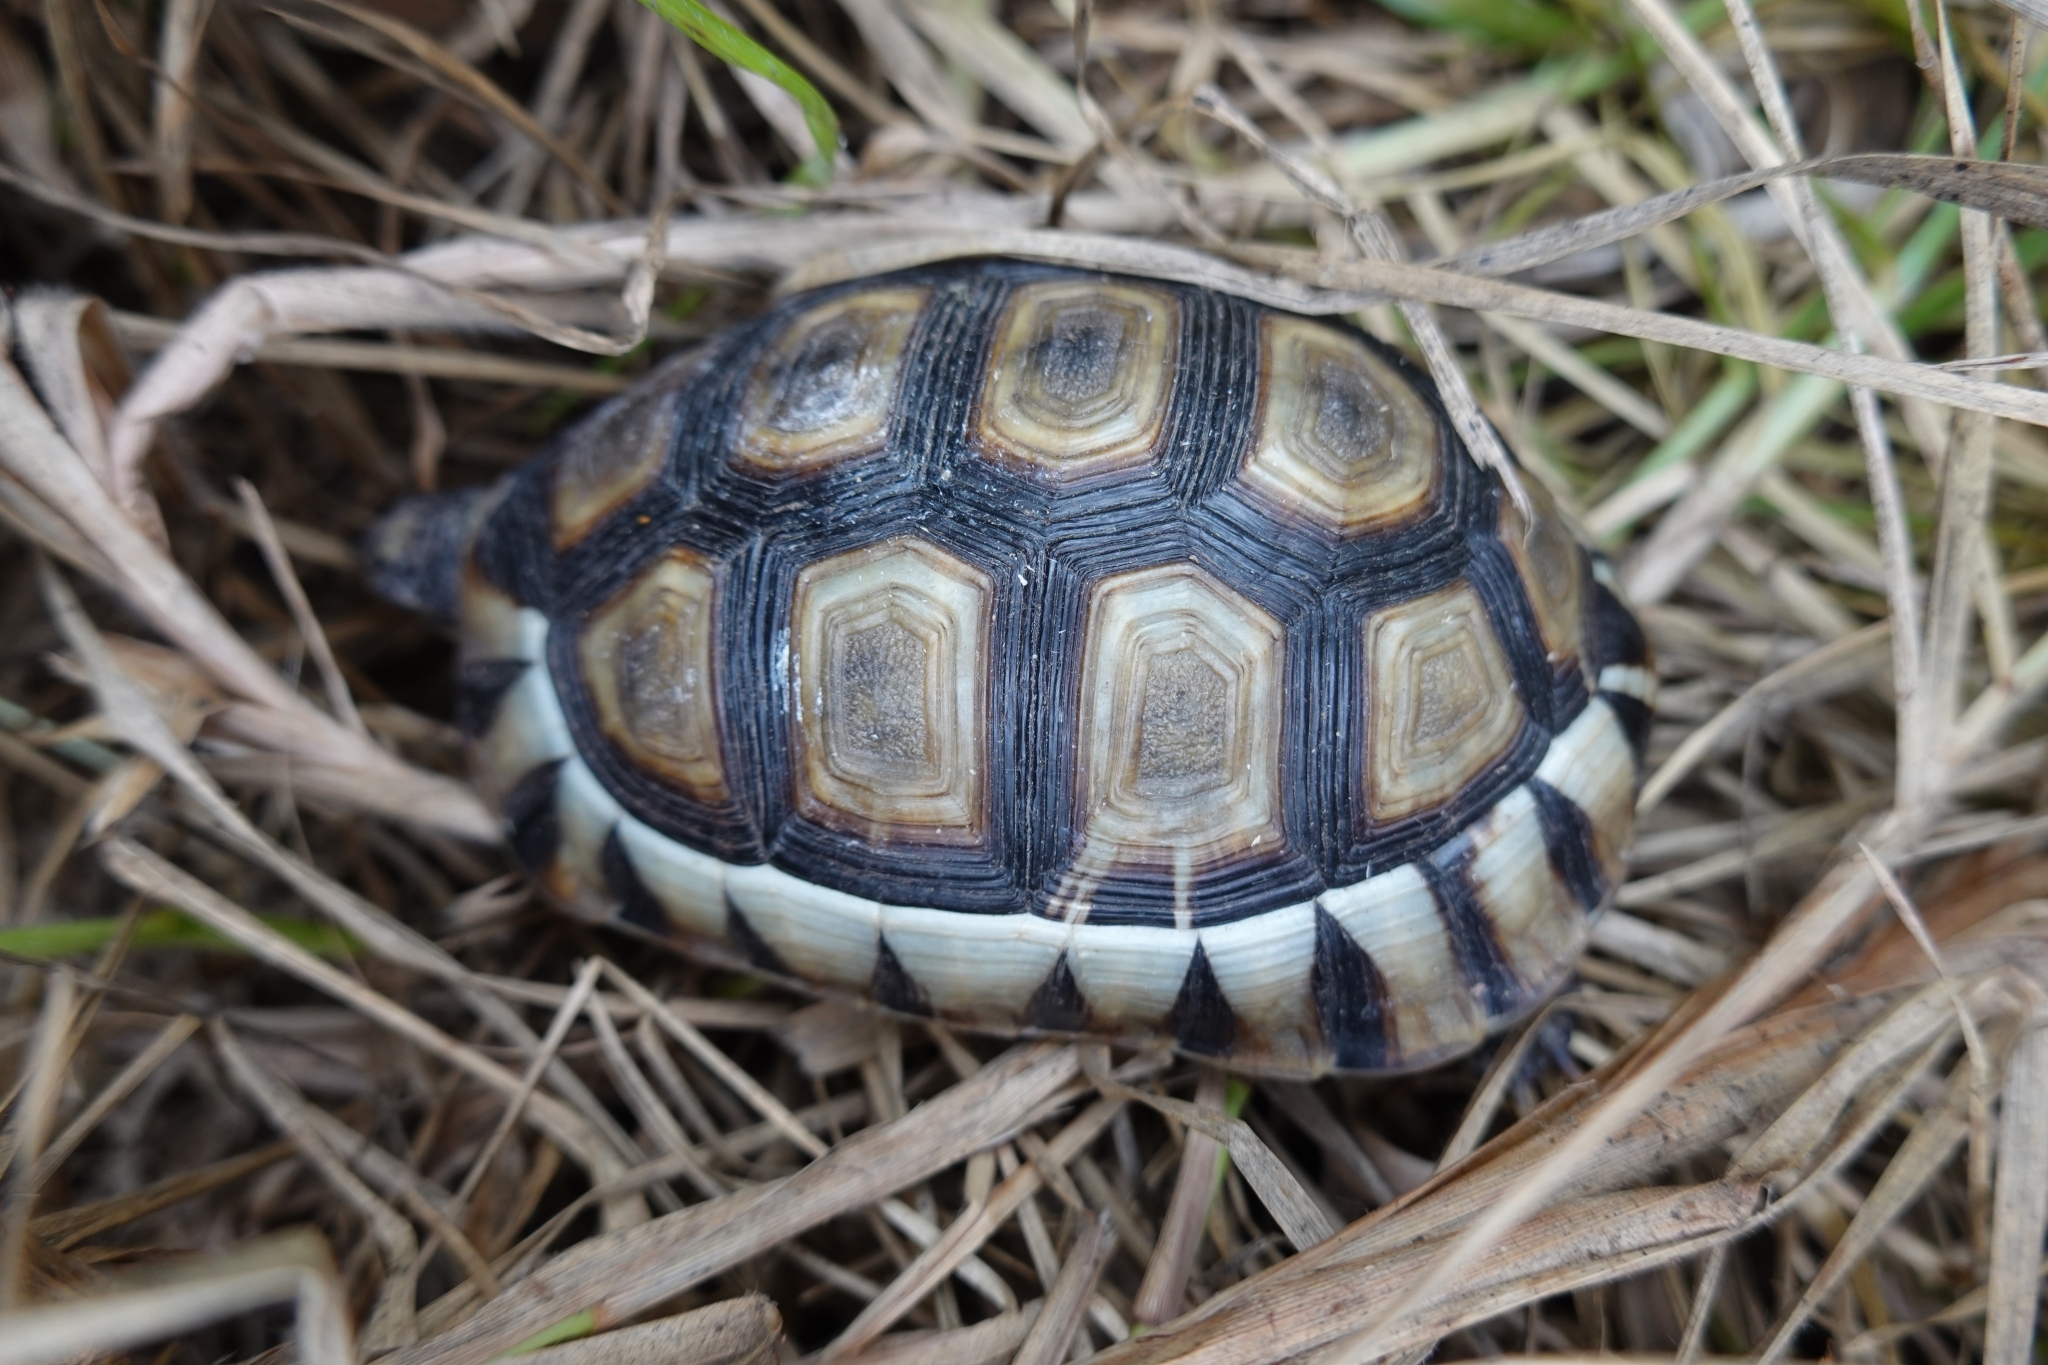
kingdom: Animalia
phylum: Chordata
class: Testudines
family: Testudinidae
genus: Chersina
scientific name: Chersina angulata
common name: South african bowsprit tortoise
